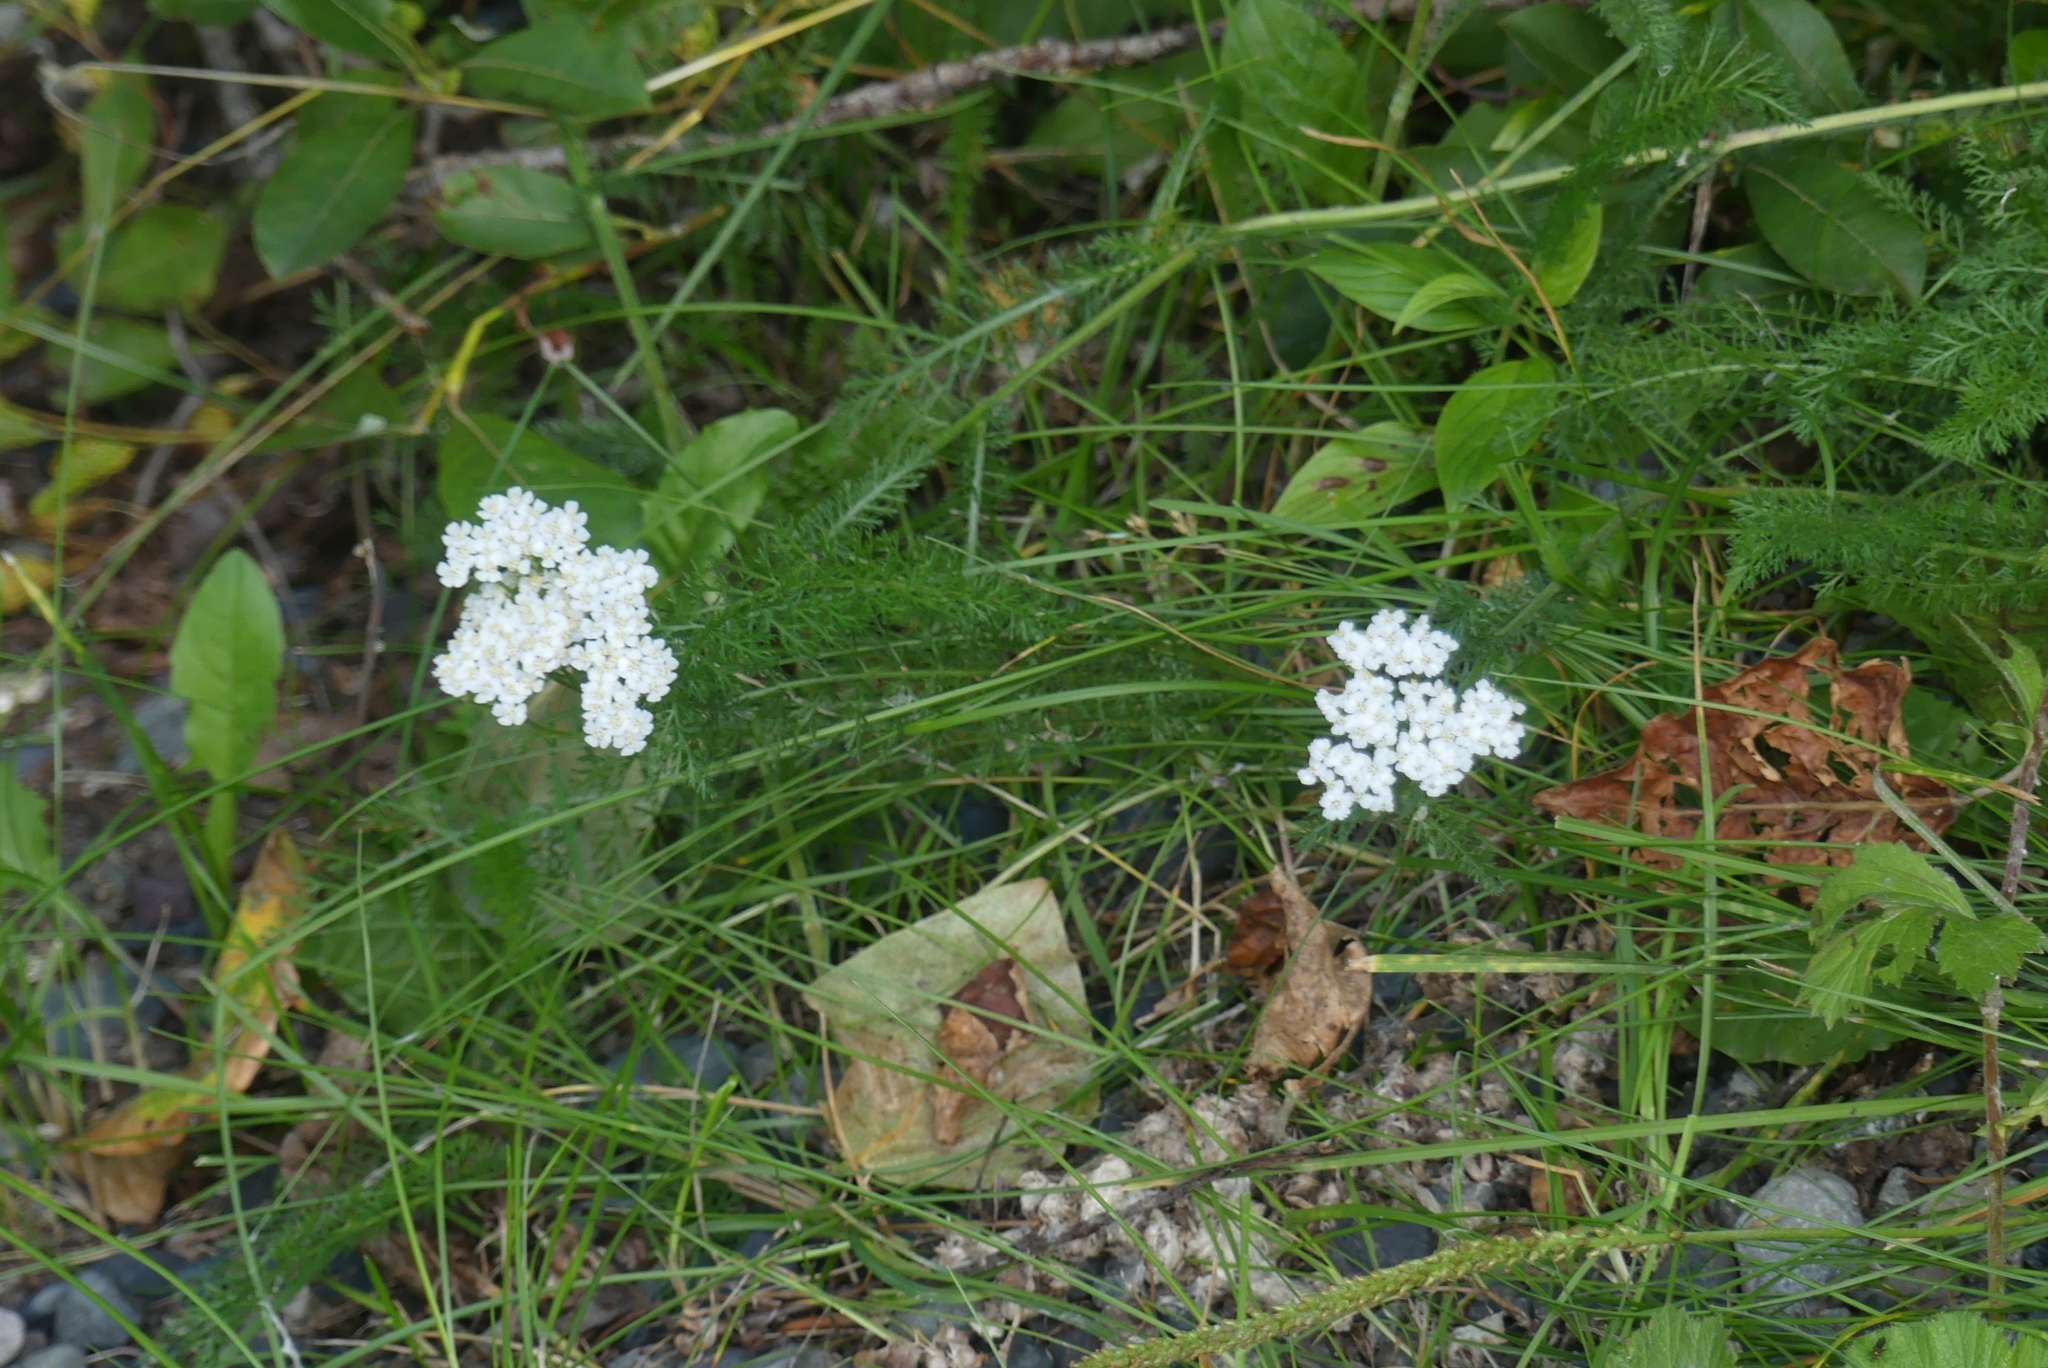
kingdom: Plantae
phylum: Tracheophyta
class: Magnoliopsida
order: Asterales
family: Asteraceae
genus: Achillea
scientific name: Achillea millefolium
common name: Yarrow
